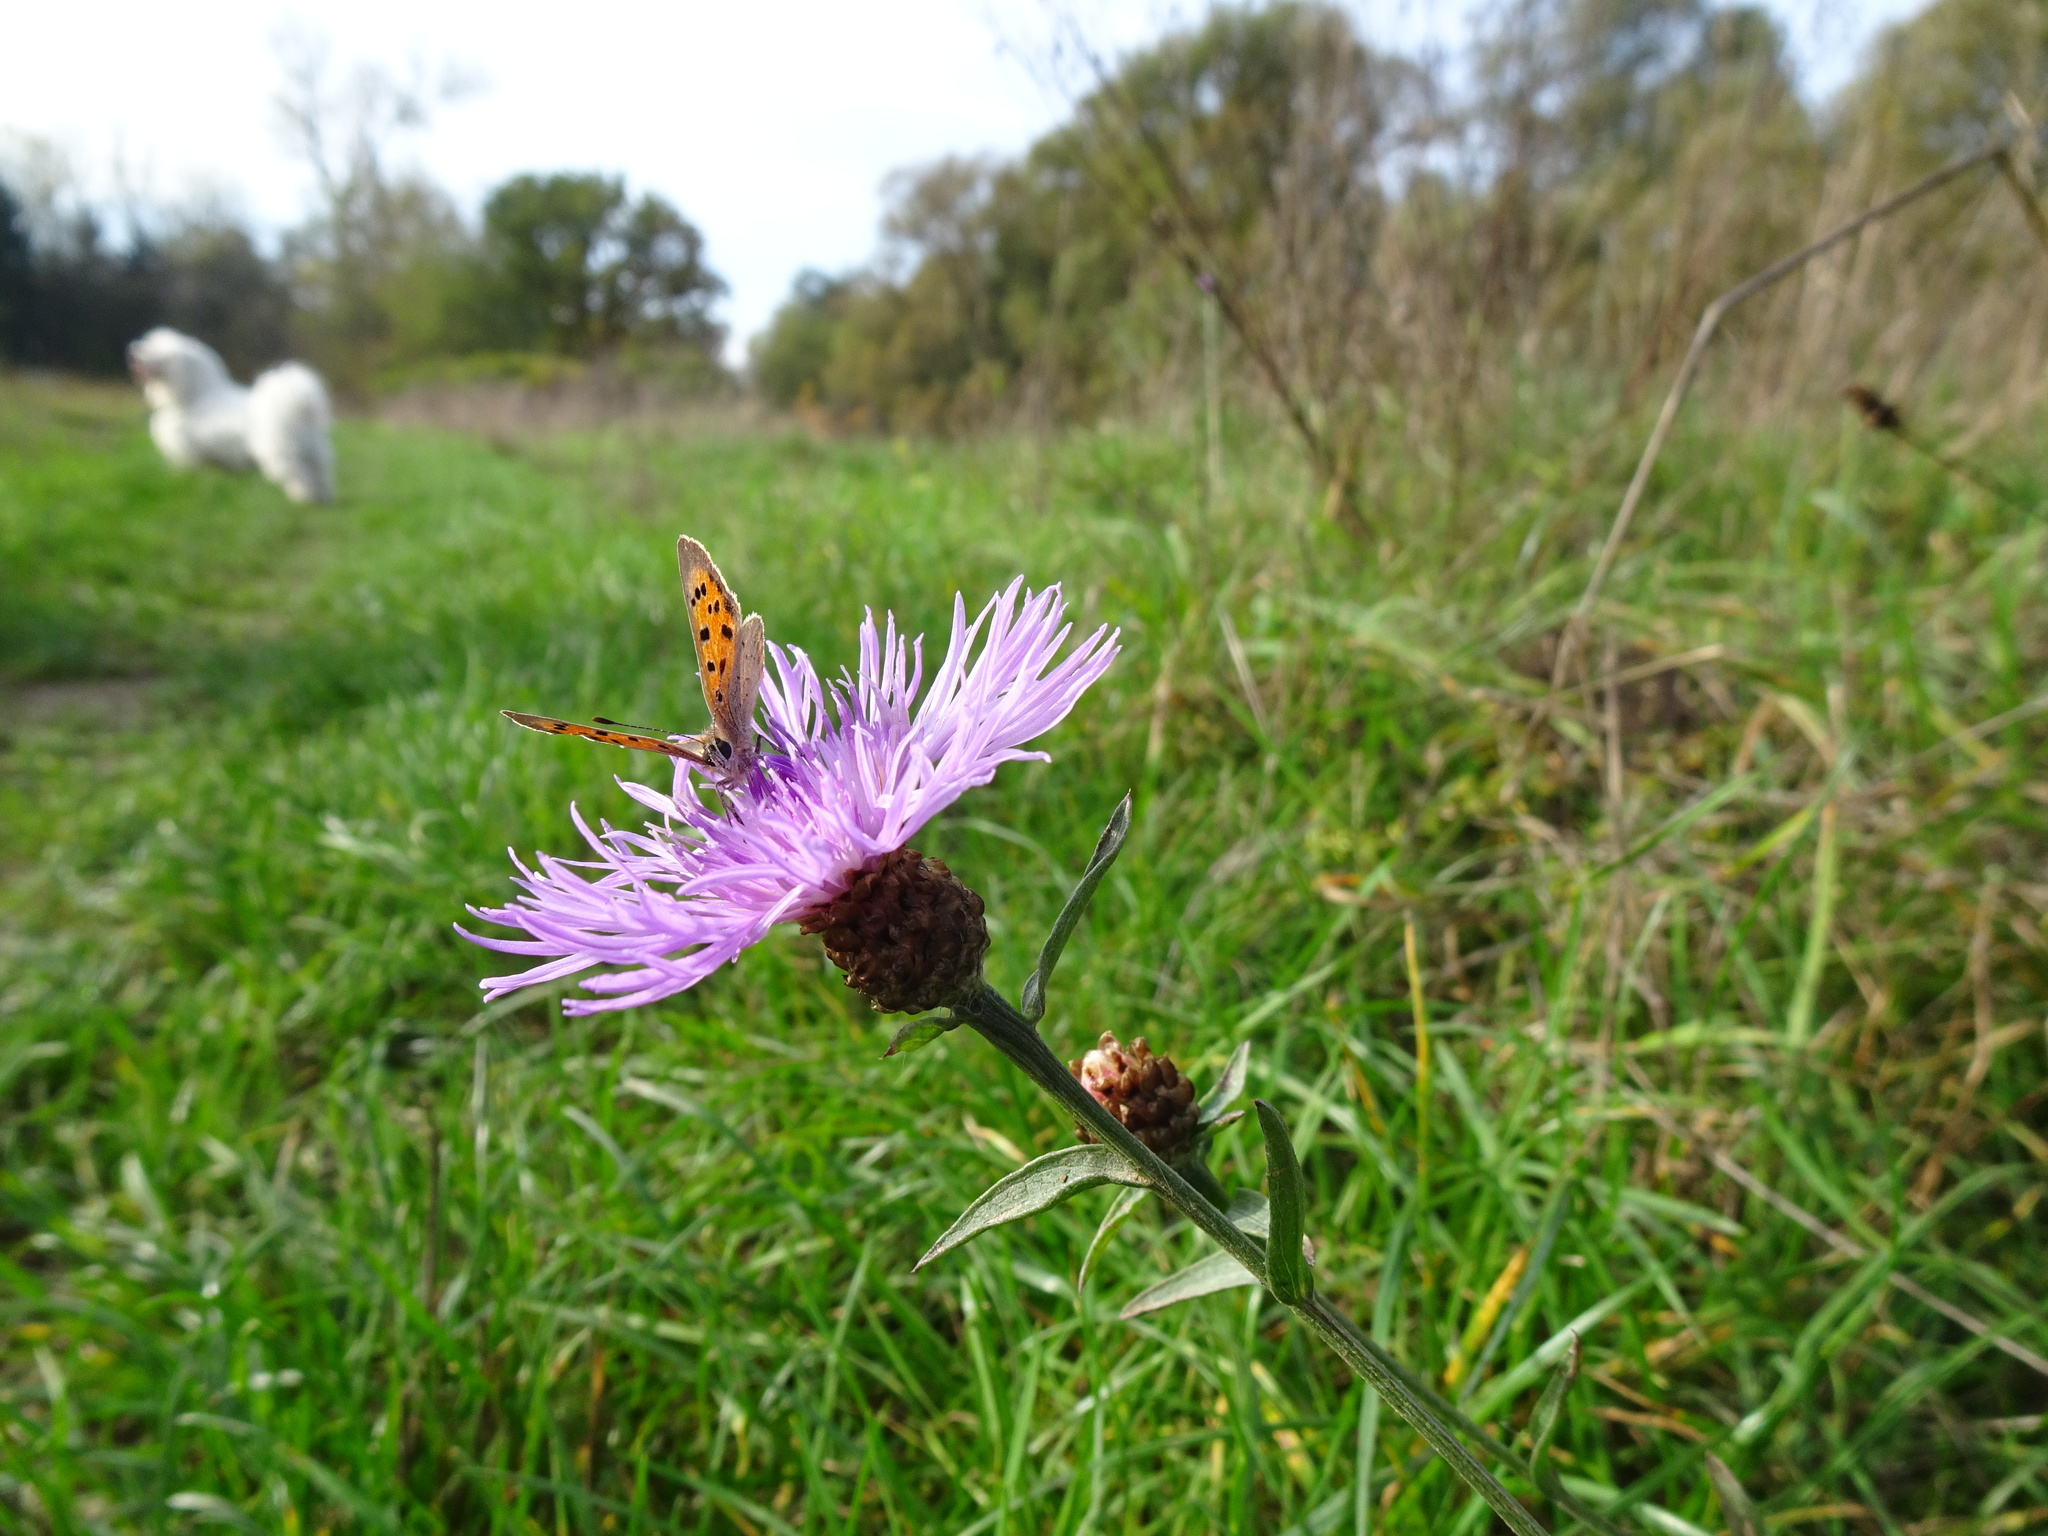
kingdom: Plantae
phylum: Tracheophyta
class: Magnoliopsida
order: Asterales
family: Asteraceae
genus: Centaurea
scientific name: Centaurea jacea
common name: Brown knapweed
